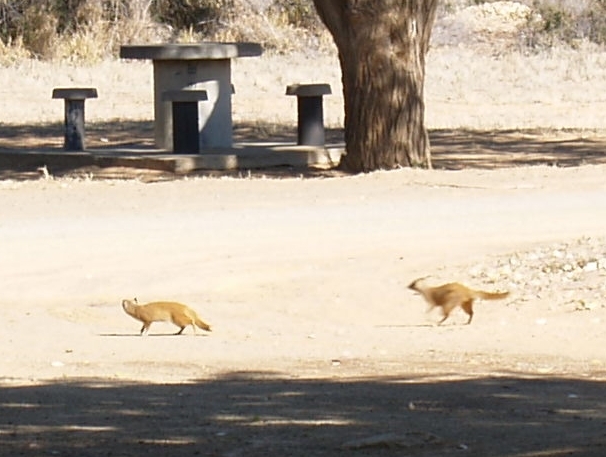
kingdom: Animalia
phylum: Chordata
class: Mammalia
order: Carnivora
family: Herpestidae
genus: Cynictis
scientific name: Cynictis penicillata
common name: Yellow mongoose
